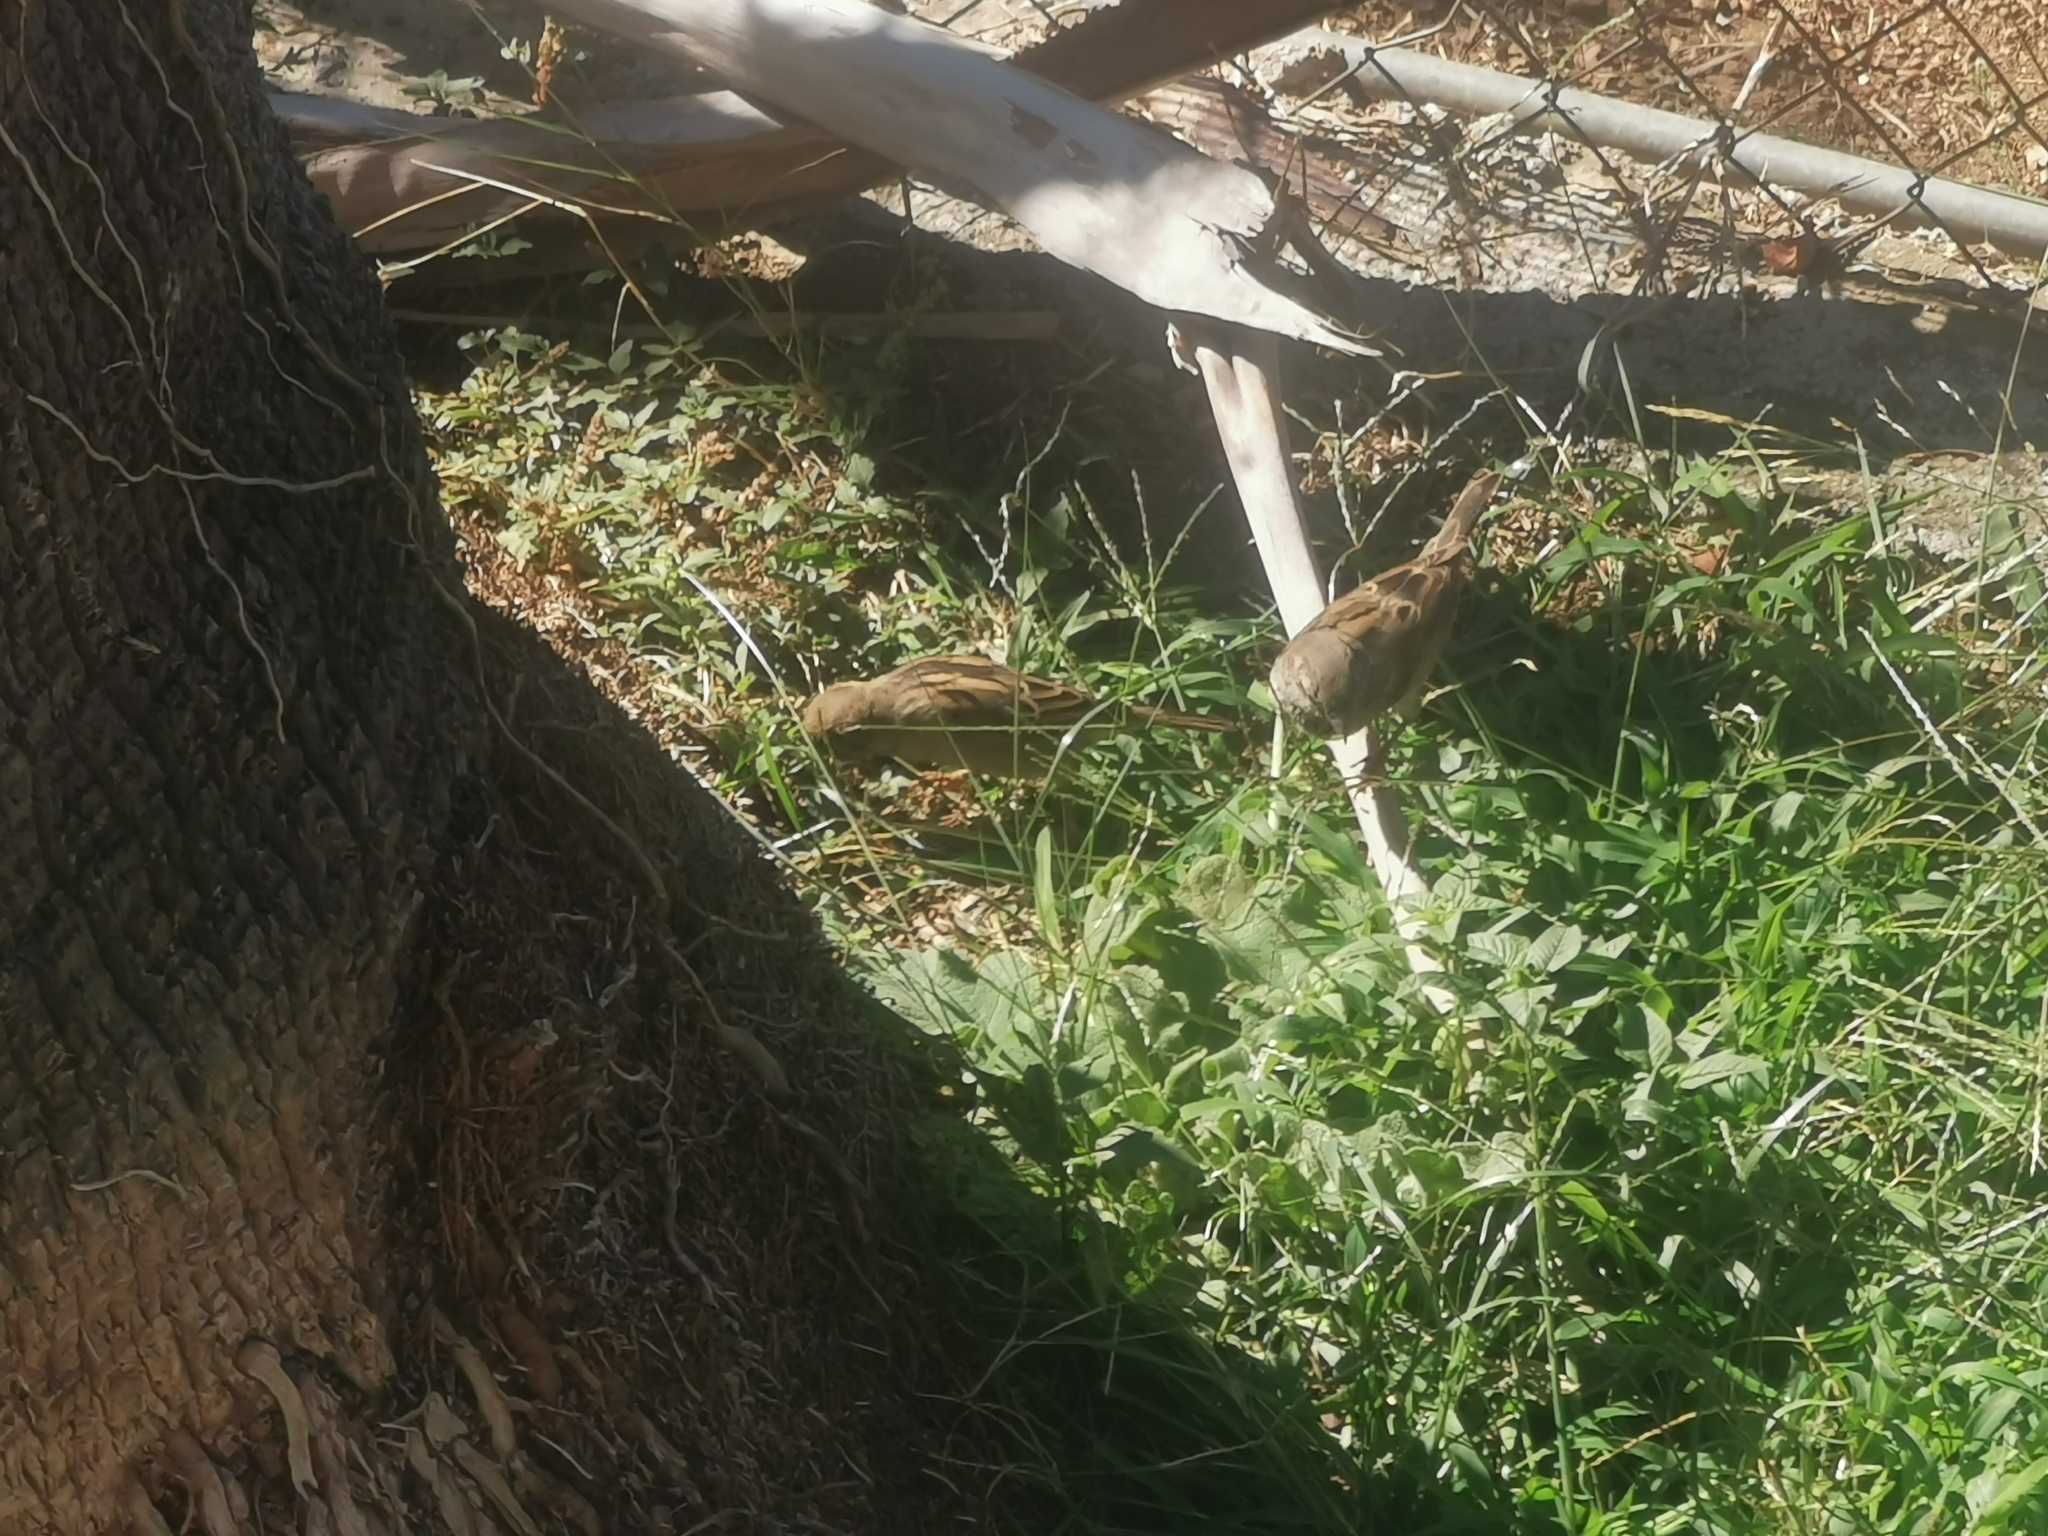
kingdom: Animalia
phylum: Chordata
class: Aves
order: Passeriformes
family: Passeridae
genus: Passer
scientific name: Passer domesticus
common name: House sparrow
